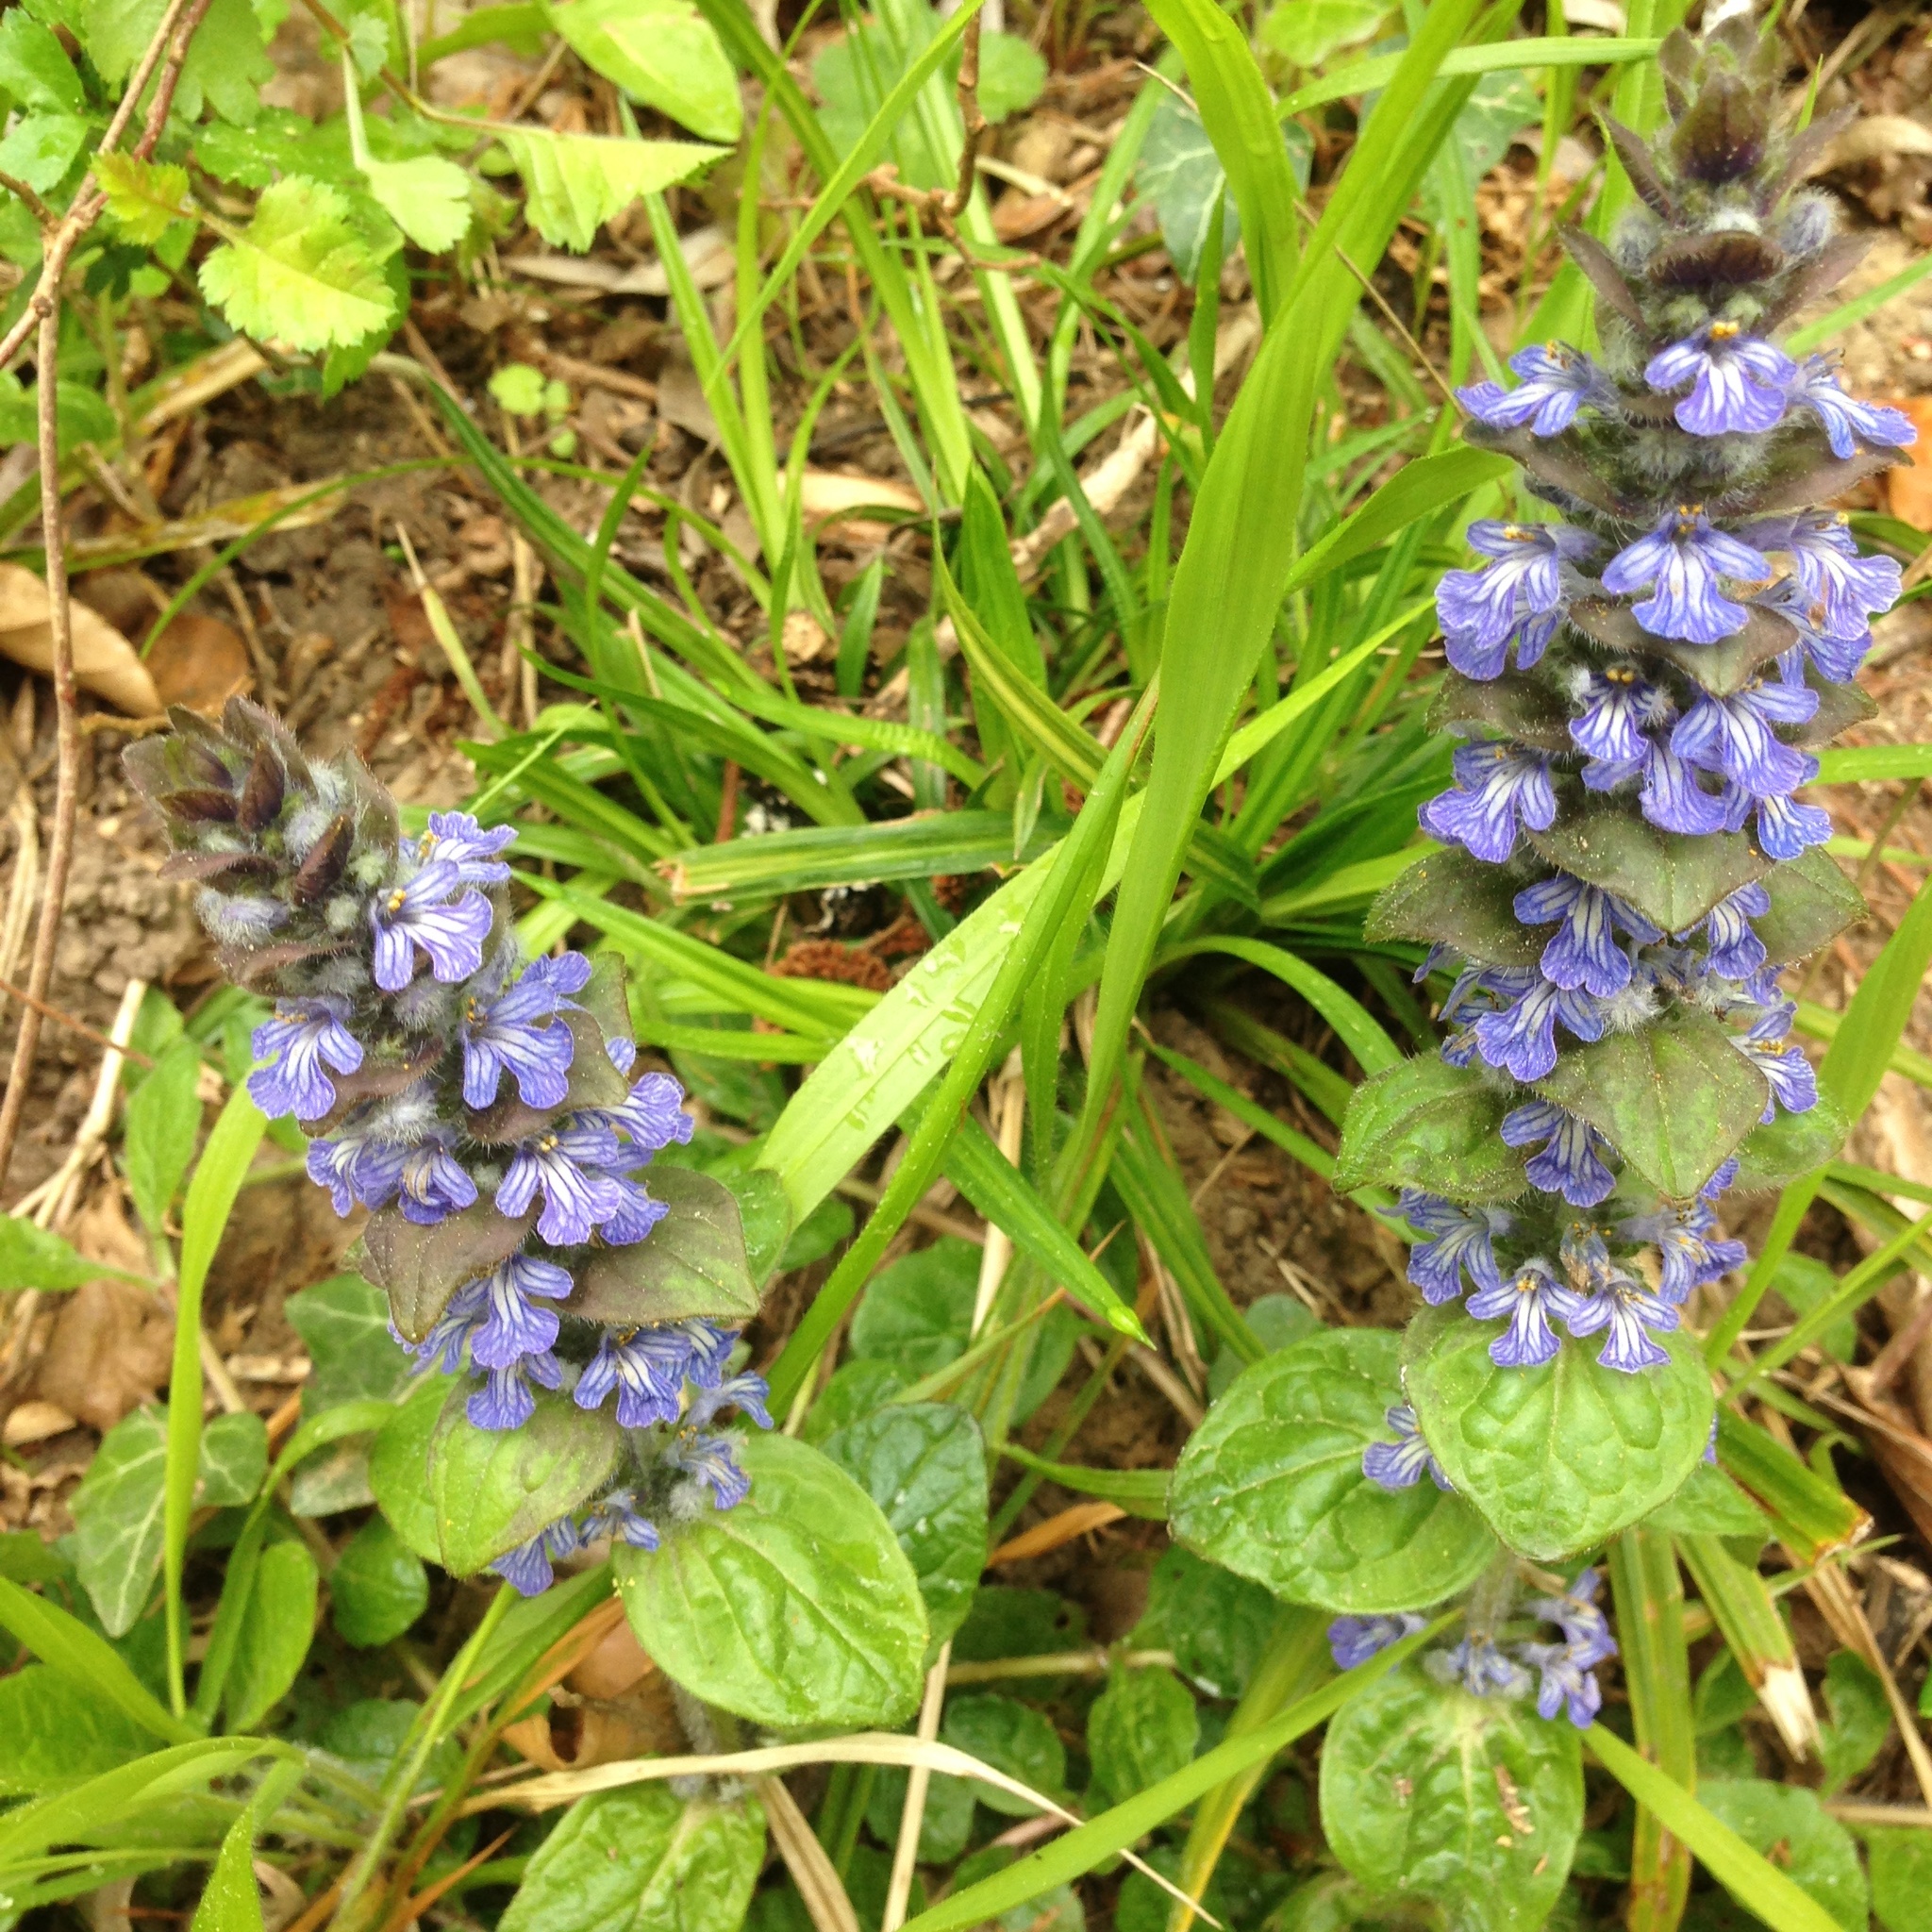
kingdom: Plantae
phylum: Tracheophyta
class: Magnoliopsida
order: Lamiales
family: Lamiaceae
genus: Ajuga
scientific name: Ajuga reptans
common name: Bugle
